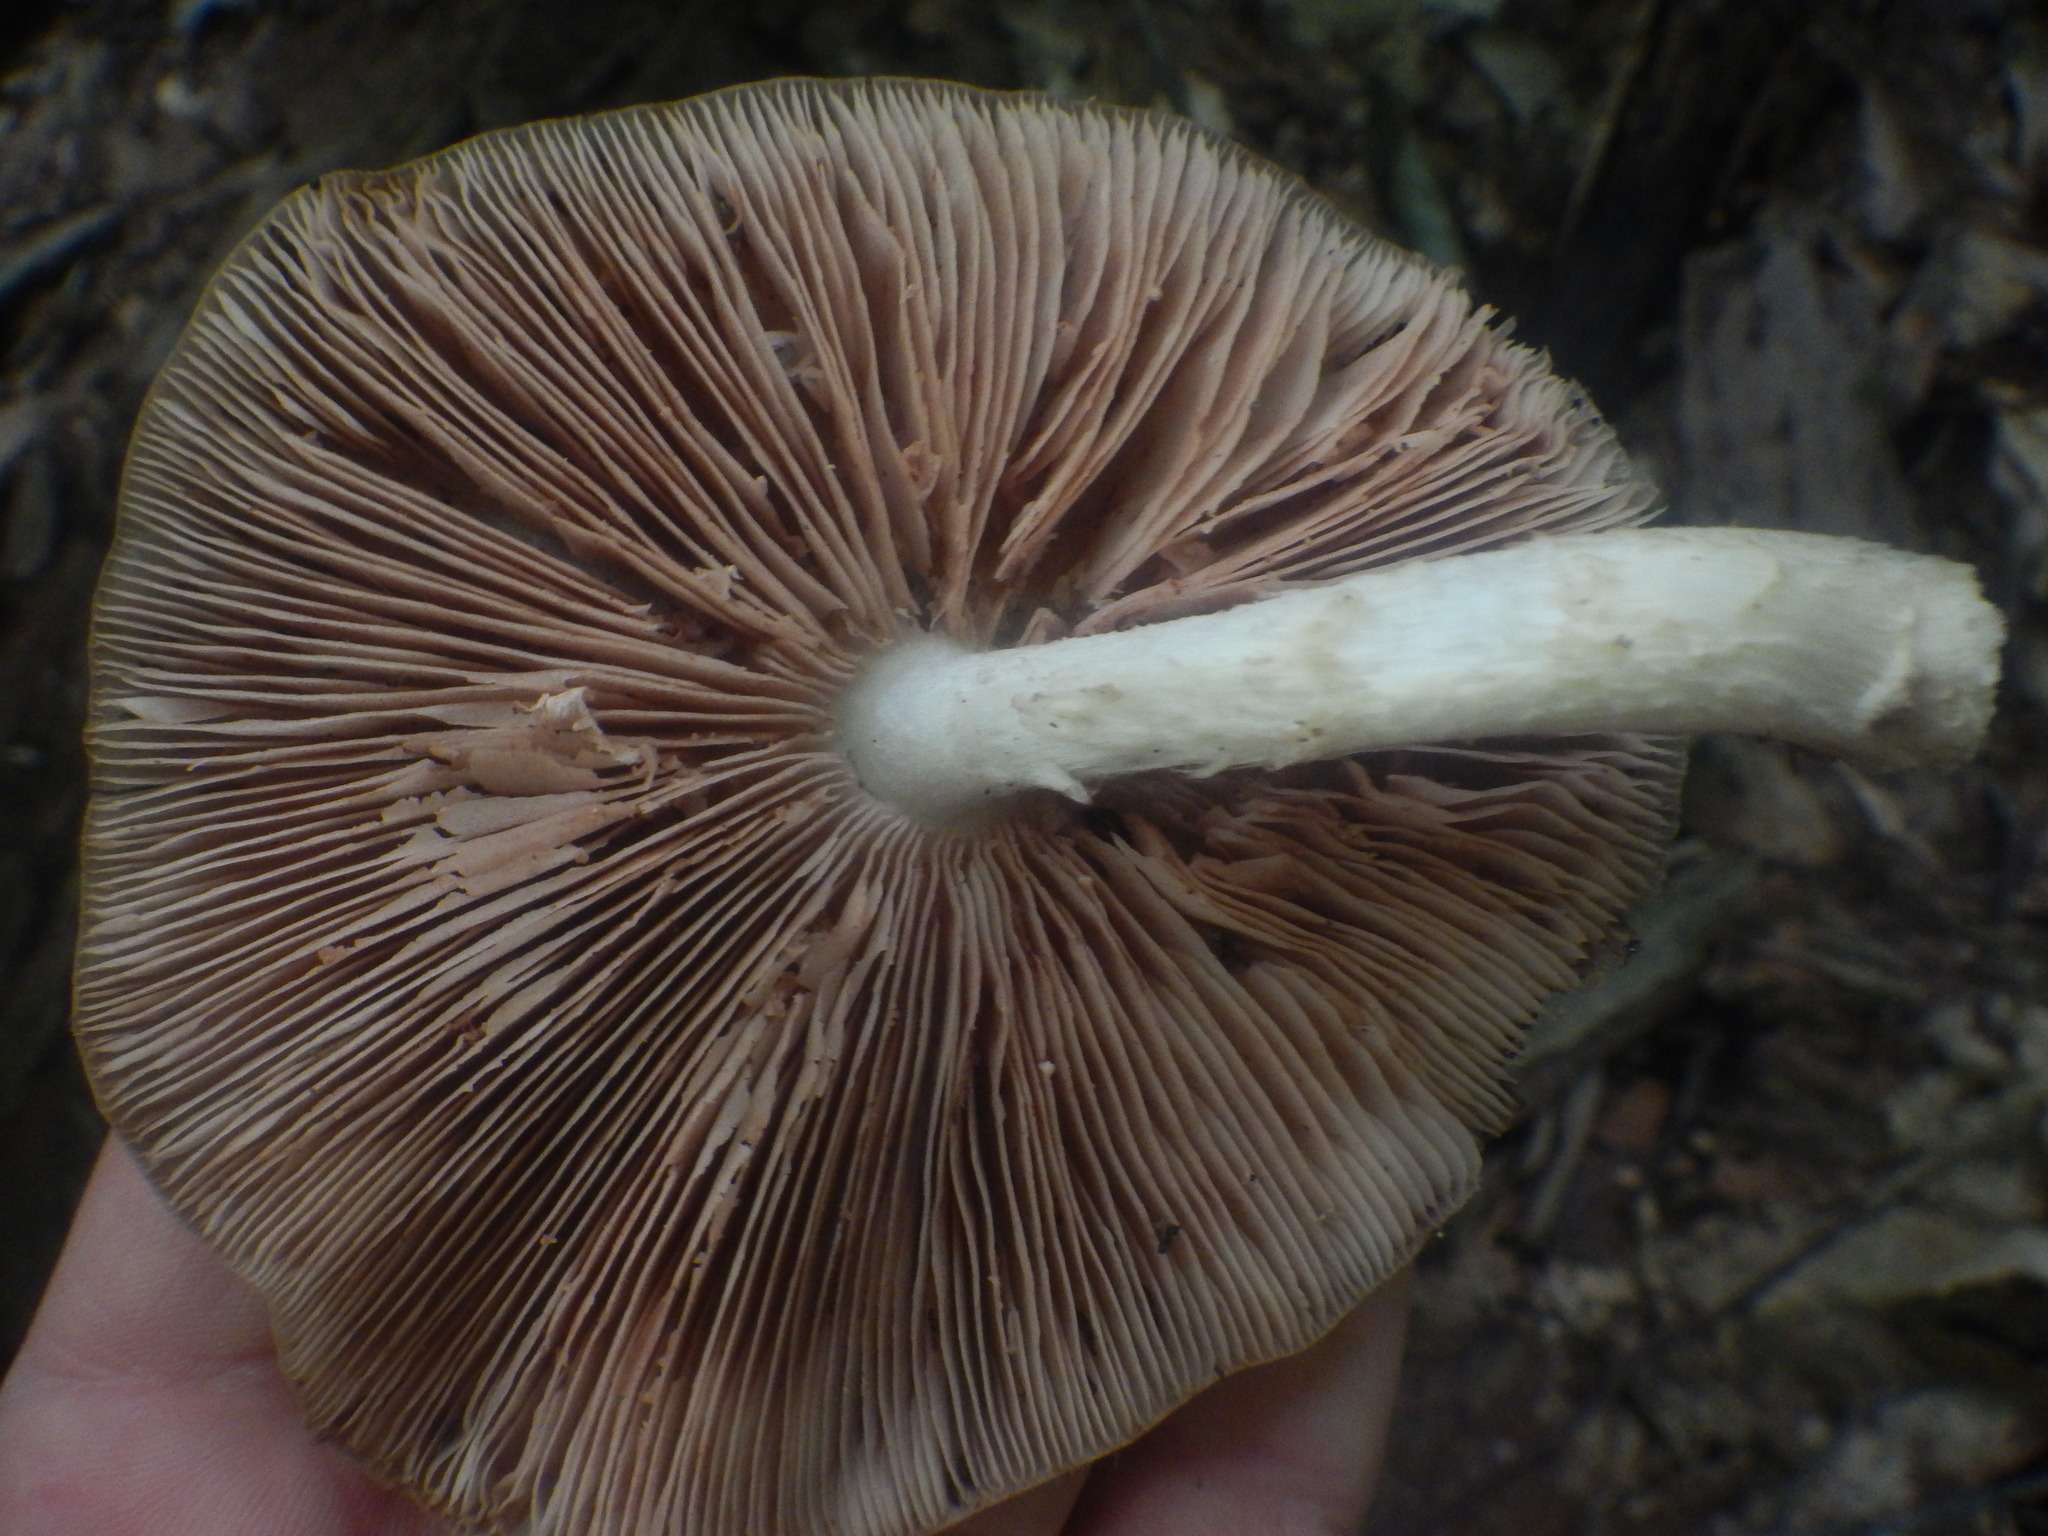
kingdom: Fungi
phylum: Basidiomycota
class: Agaricomycetes
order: Agaricales
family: Pluteaceae
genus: Pluteus
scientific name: Pluteus cervinus
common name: Deer shield
